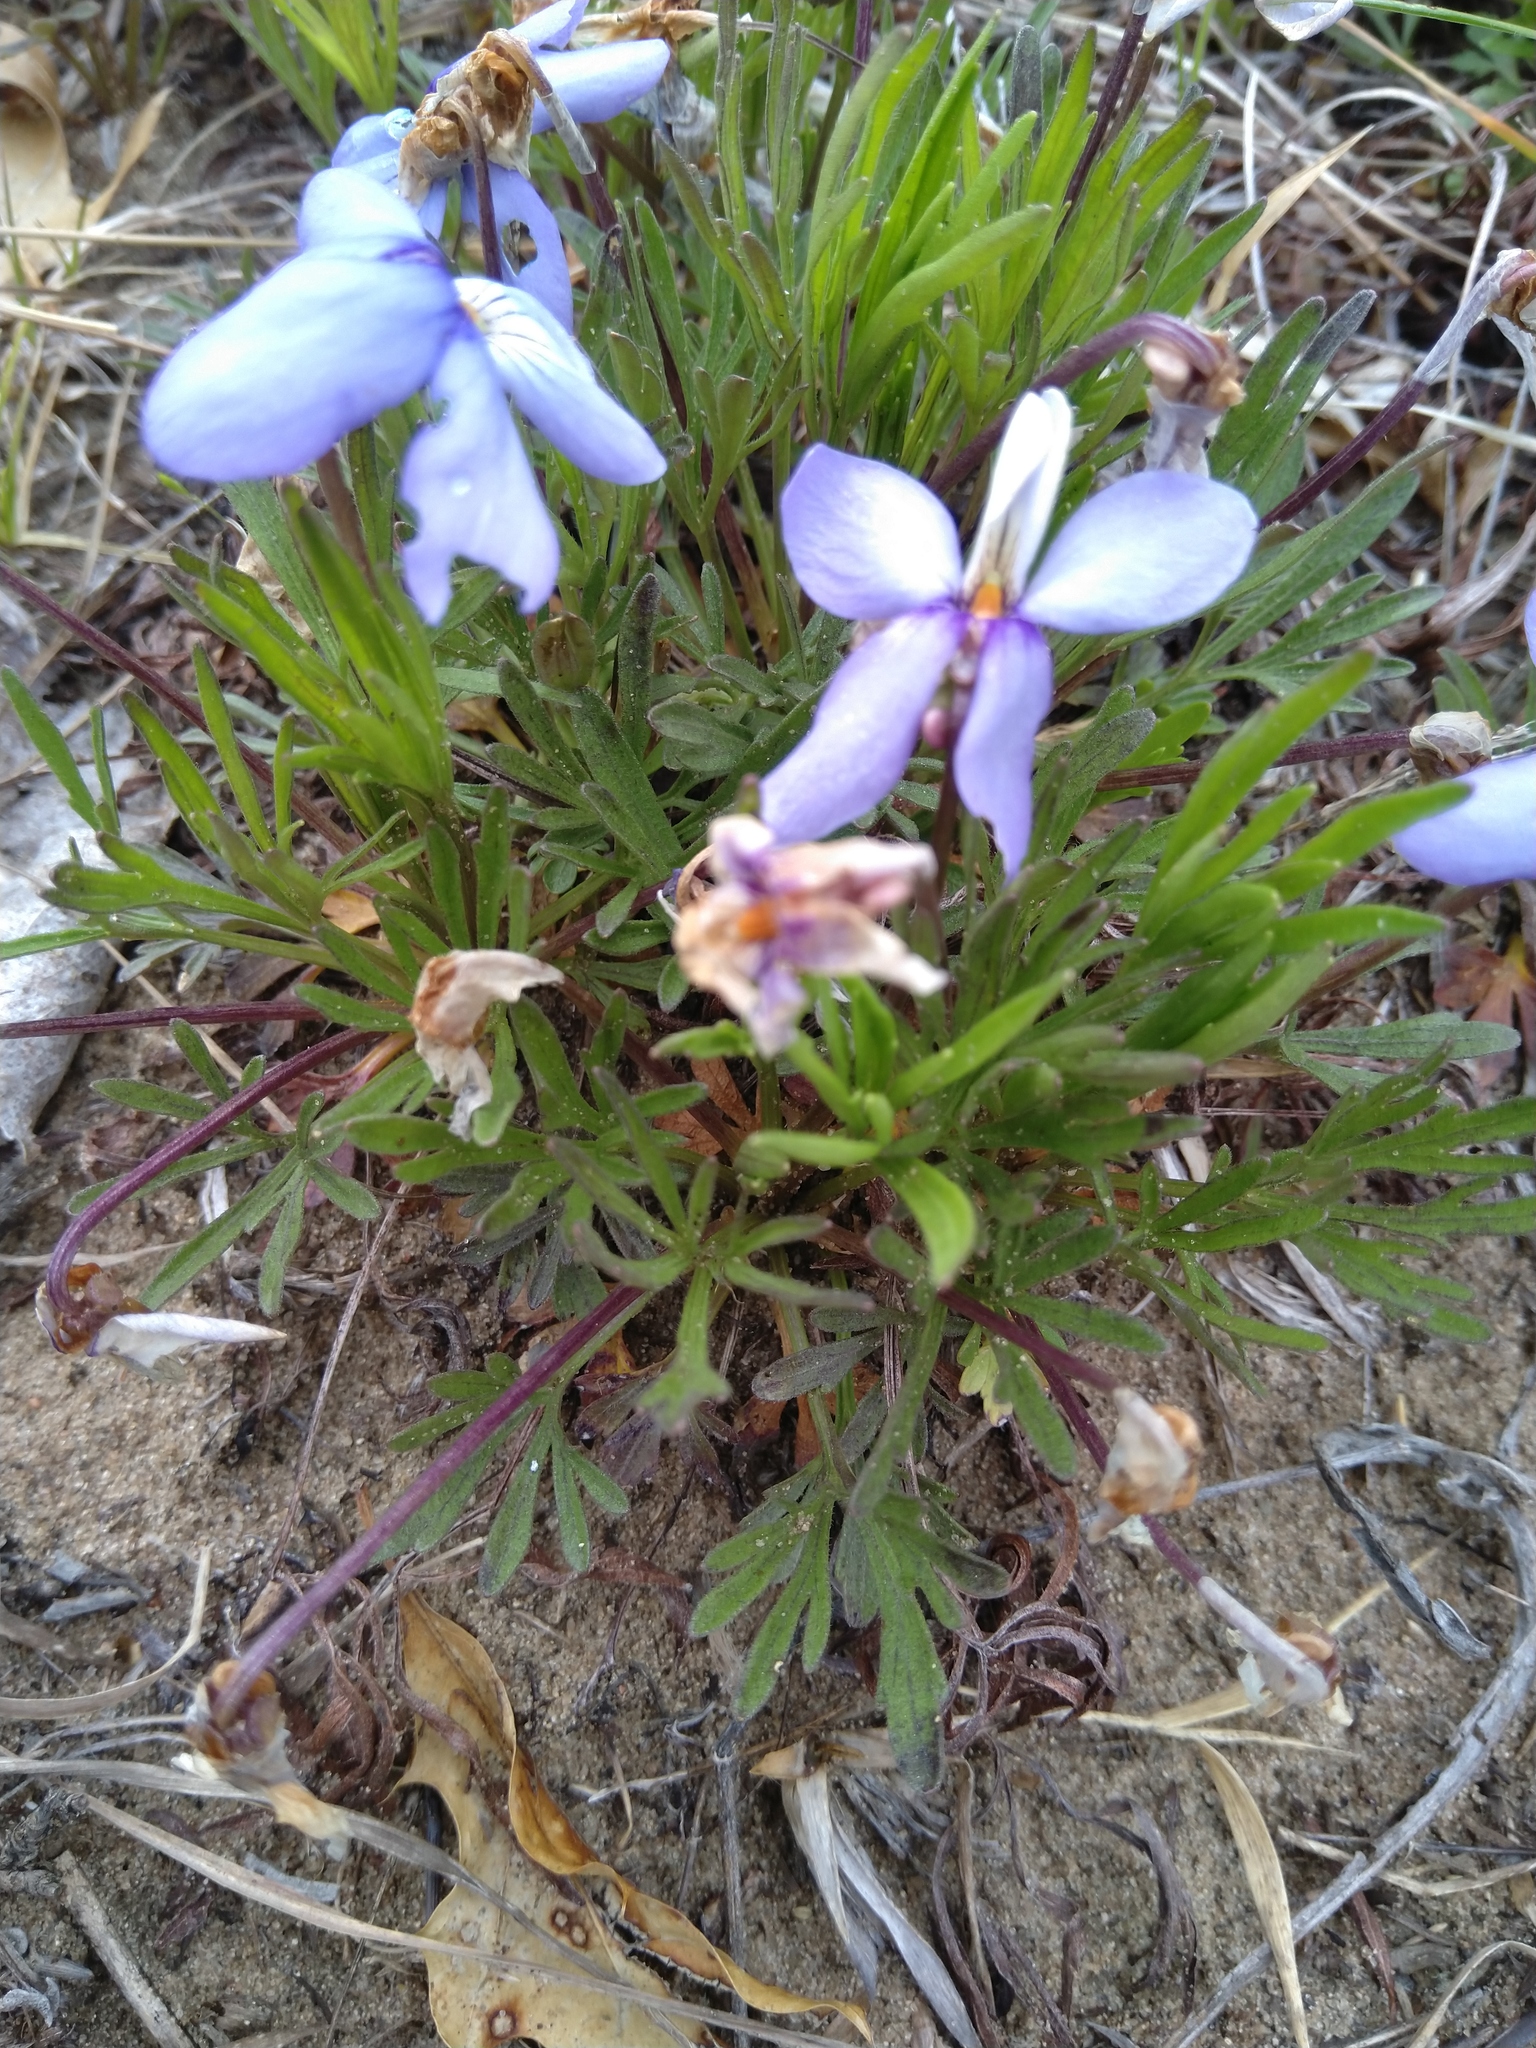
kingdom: Plantae
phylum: Tracheophyta
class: Magnoliopsida
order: Malpighiales
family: Violaceae
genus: Viola
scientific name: Viola pedata
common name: Pansy violet
